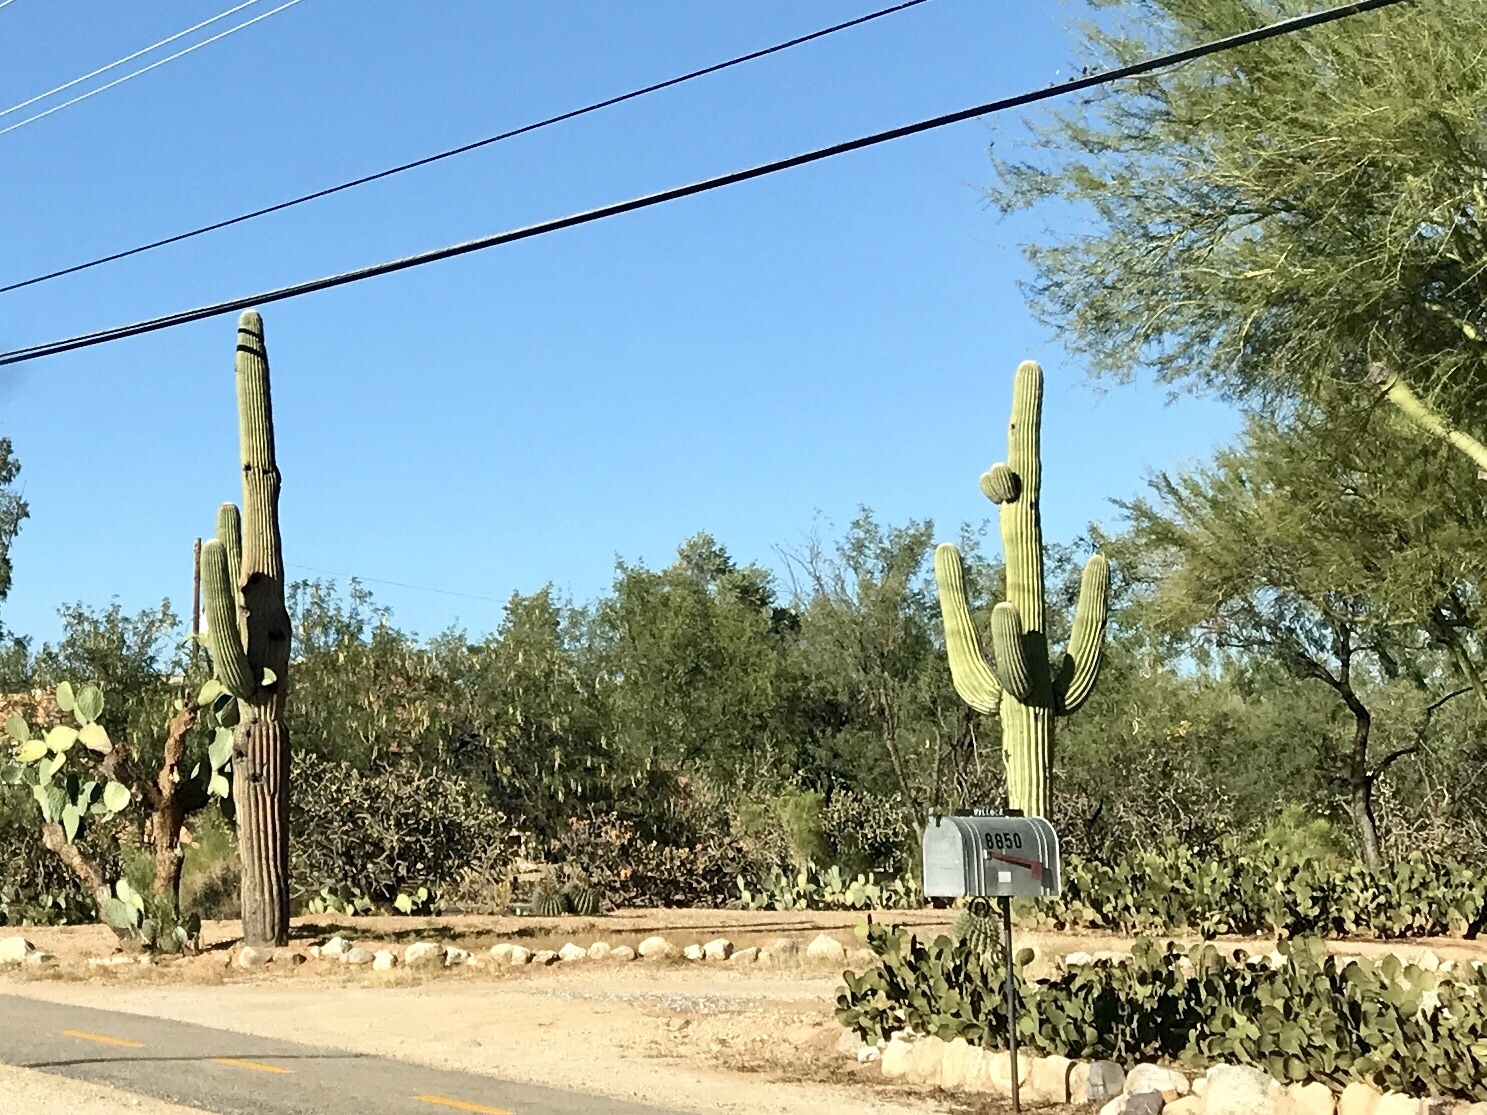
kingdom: Plantae
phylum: Tracheophyta
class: Magnoliopsida
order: Caryophyllales
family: Cactaceae
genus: Carnegiea
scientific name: Carnegiea gigantea
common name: Saguaro
